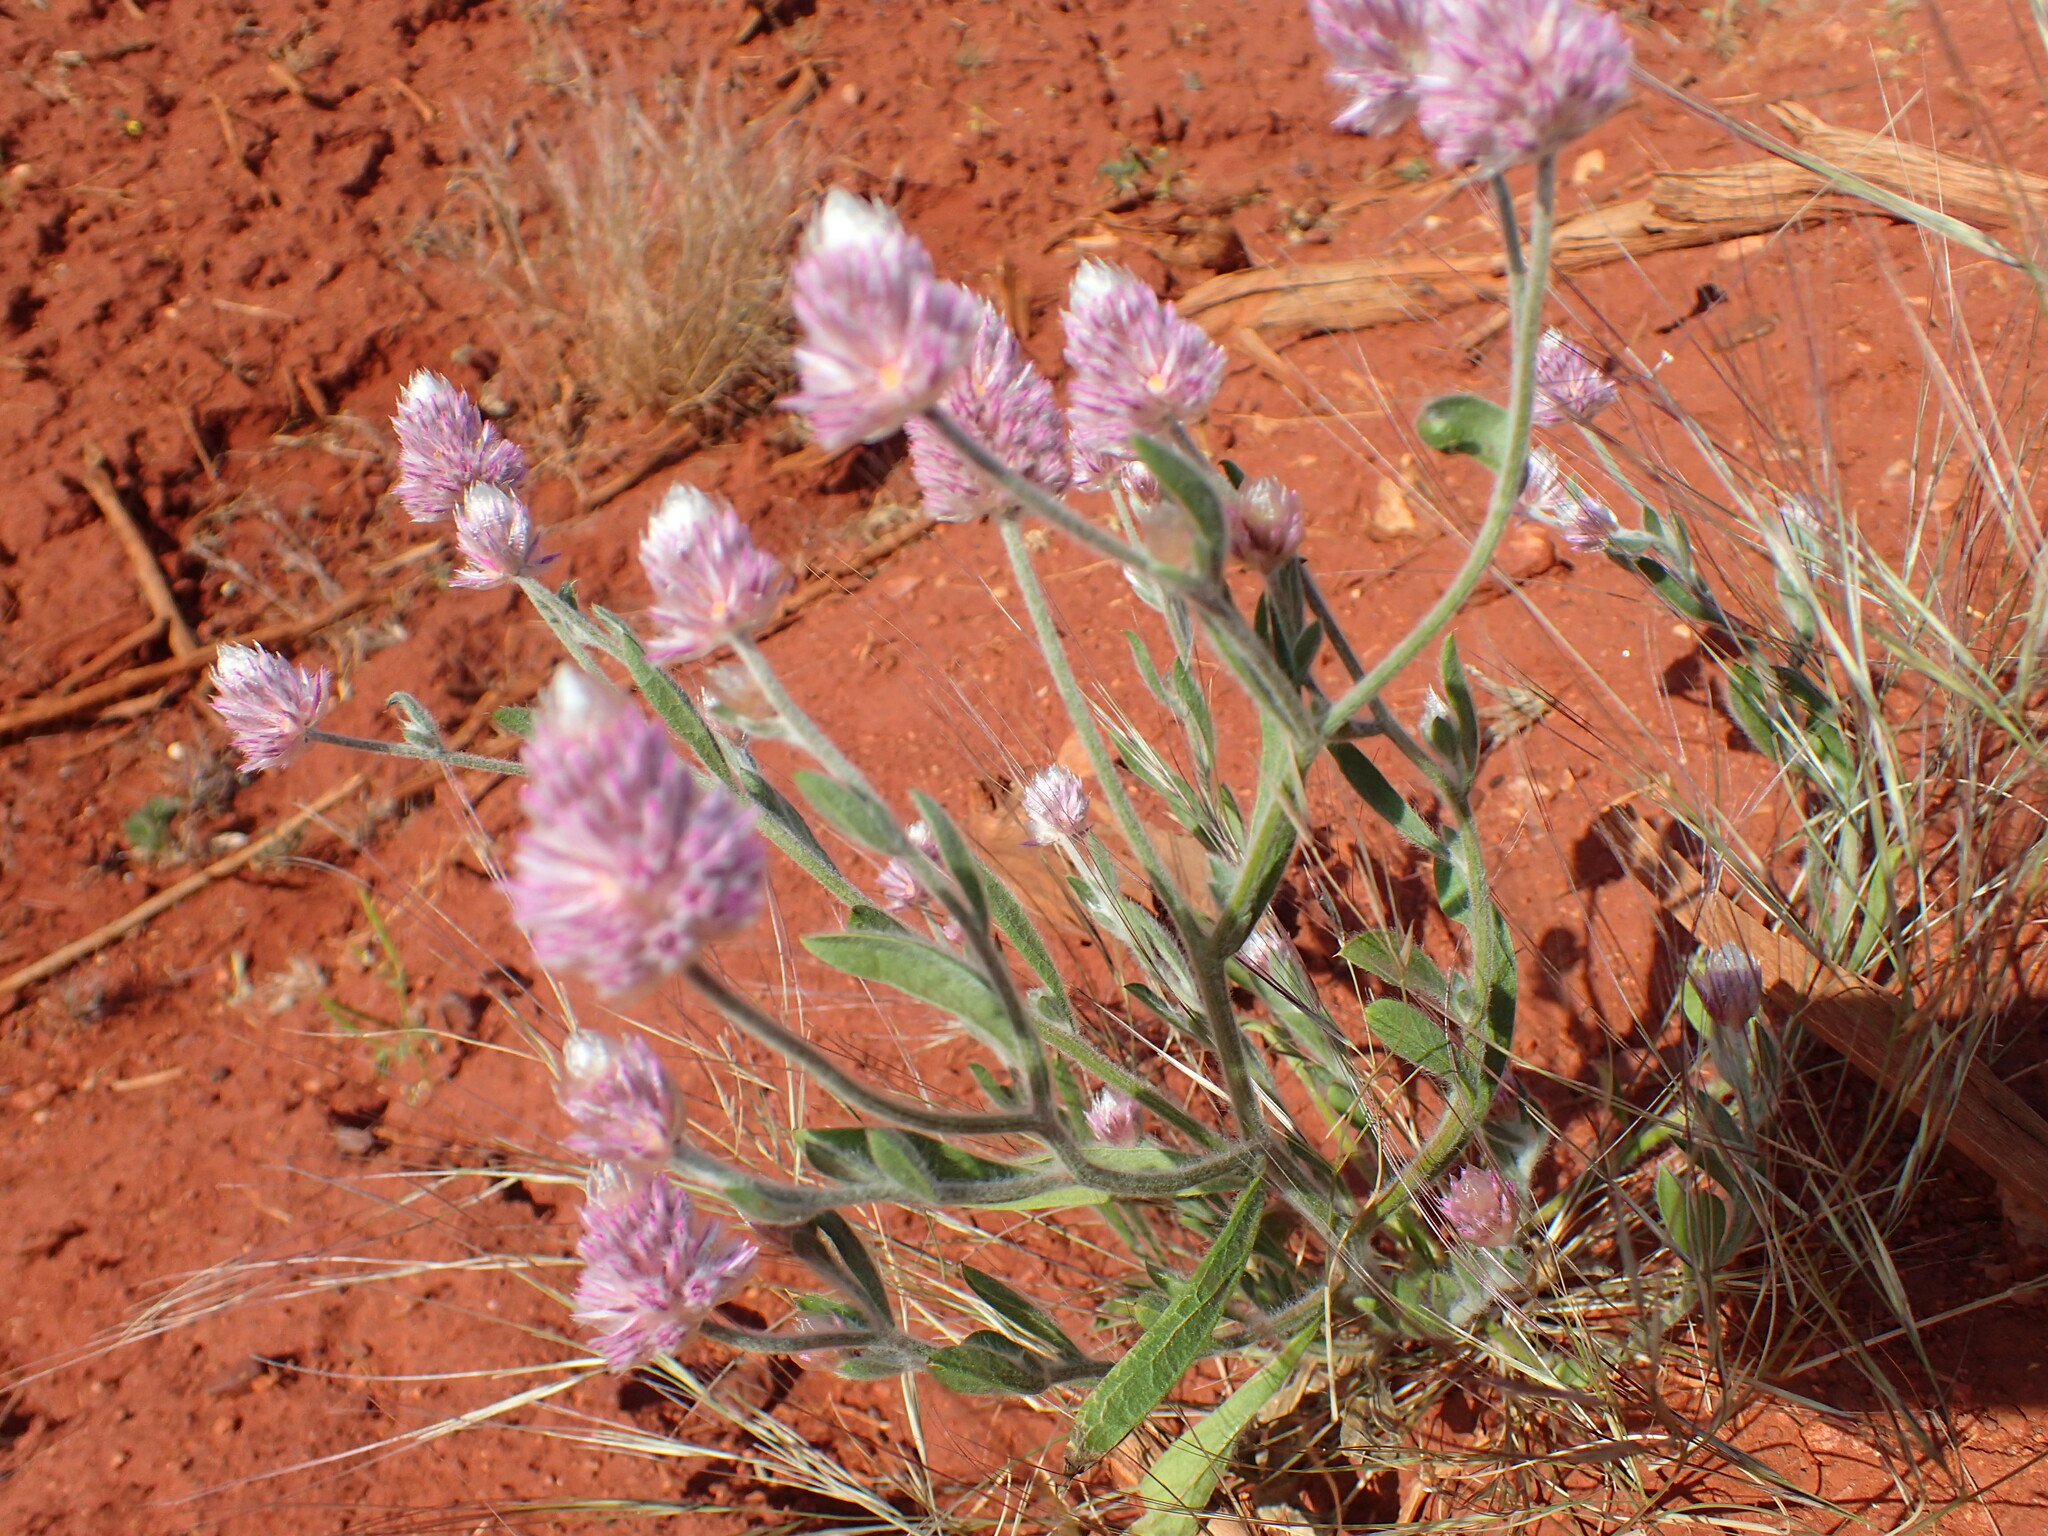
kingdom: Plantae
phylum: Tracheophyta
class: Magnoliopsida
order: Caryophyllales
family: Amaranthaceae
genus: Ptilotus
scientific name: Ptilotus helipteroides
